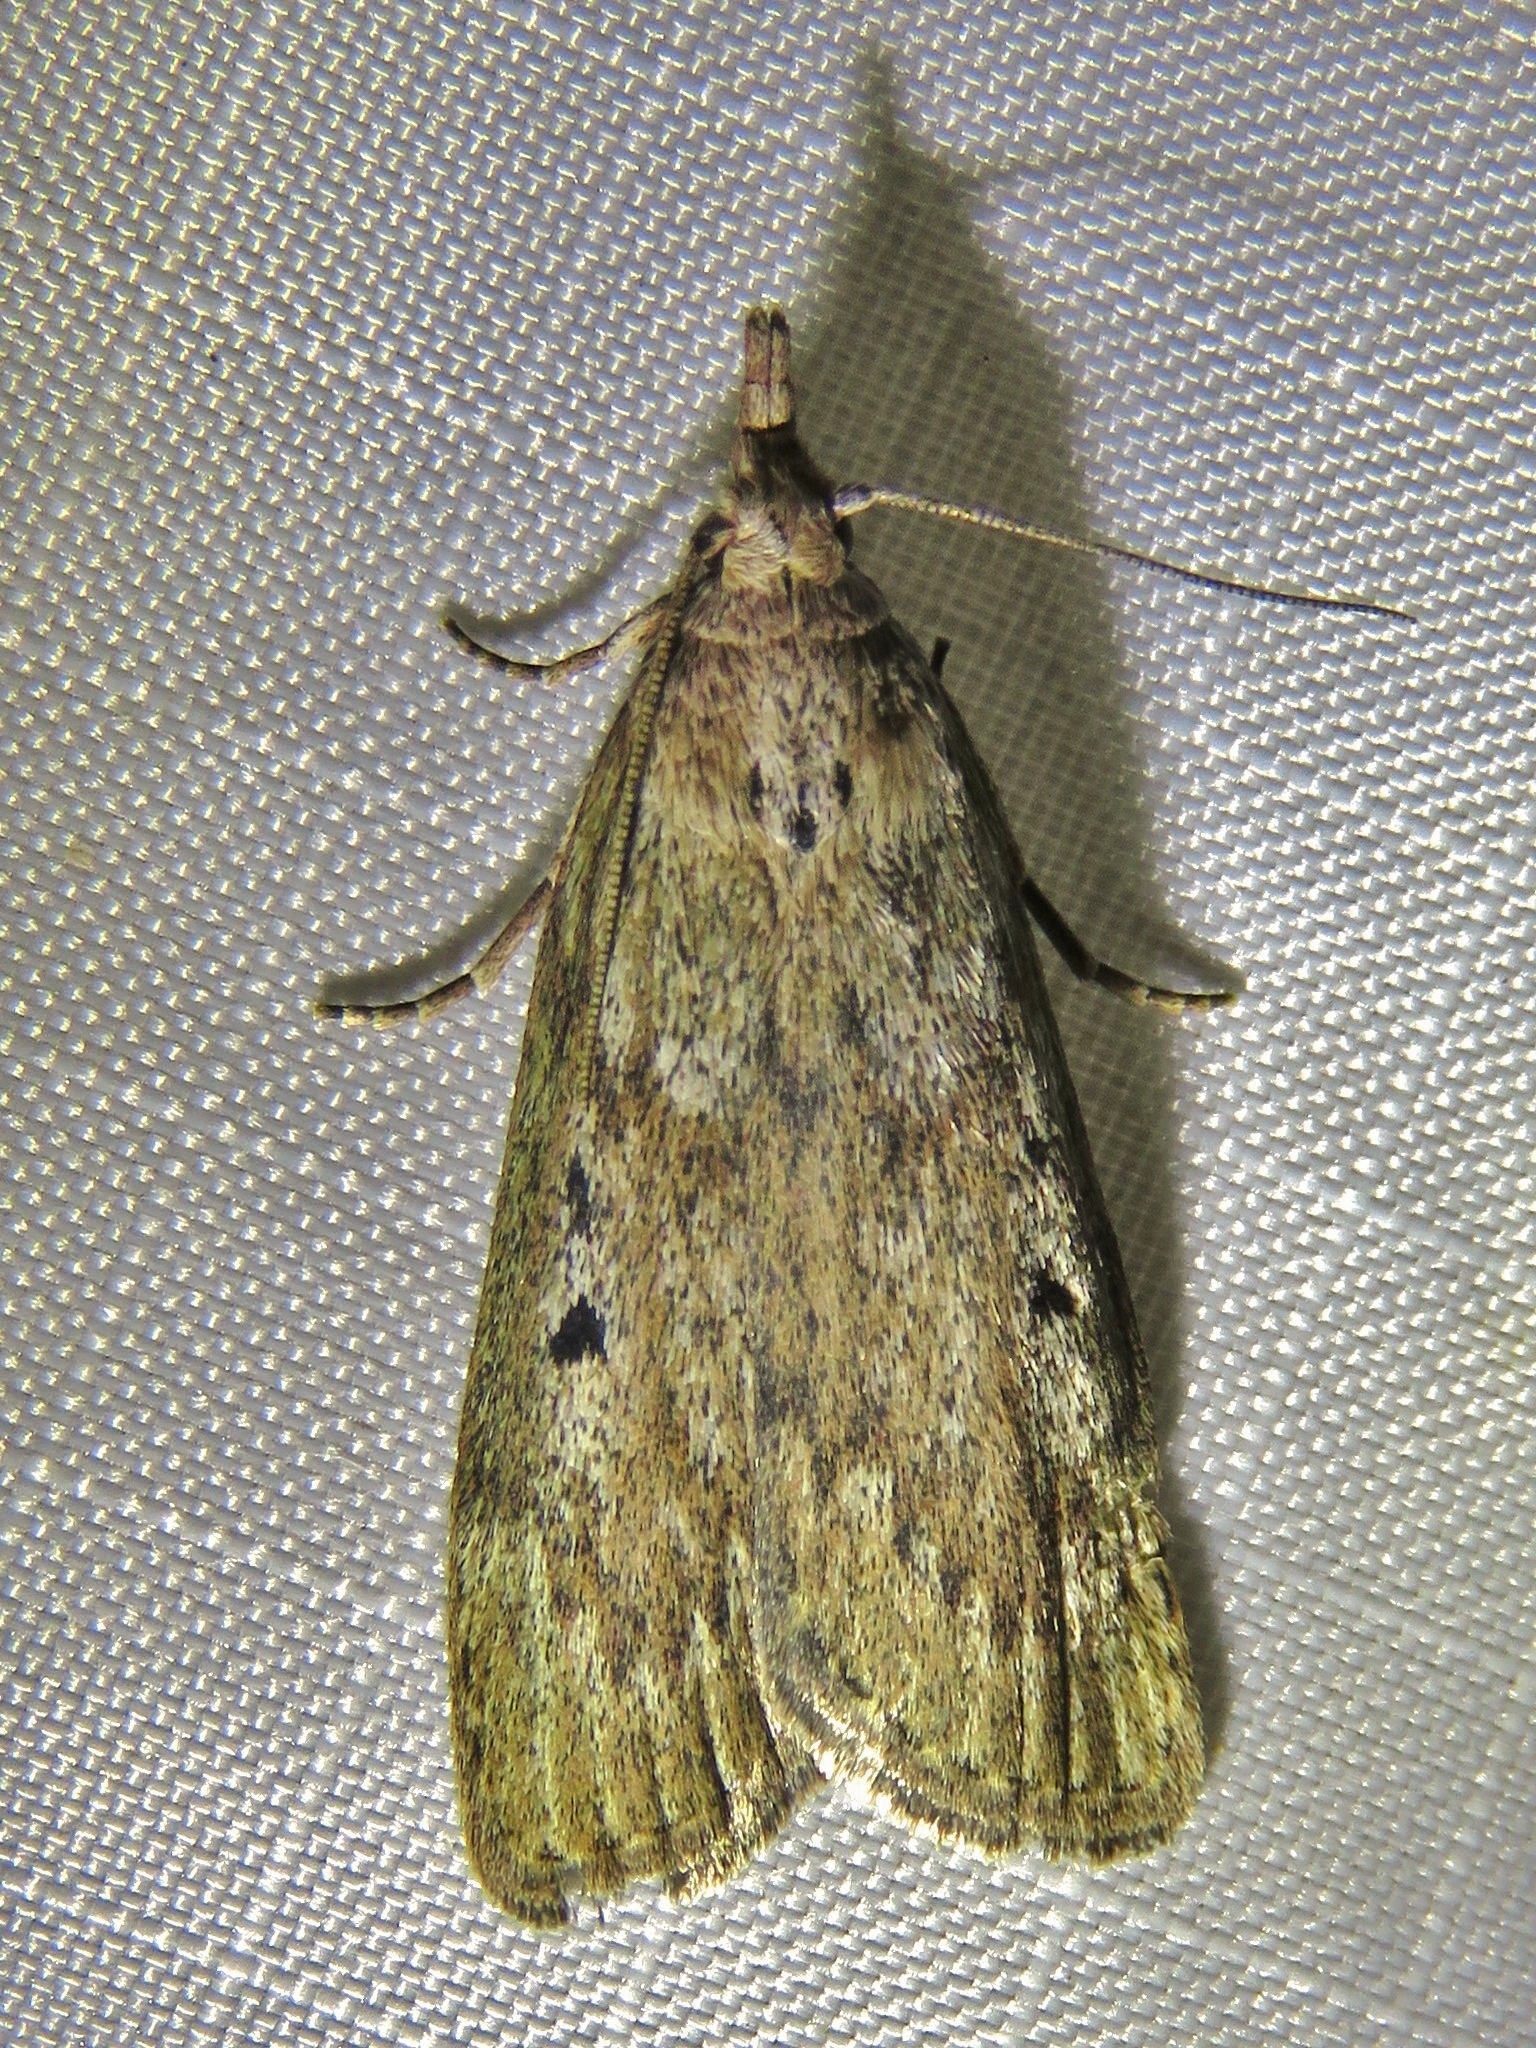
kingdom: Animalia
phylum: Arthropoda
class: Insecta
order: Lepidoptera
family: Pyralidae
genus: Aphomia
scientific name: Aphomia sociella
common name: Bee moth
